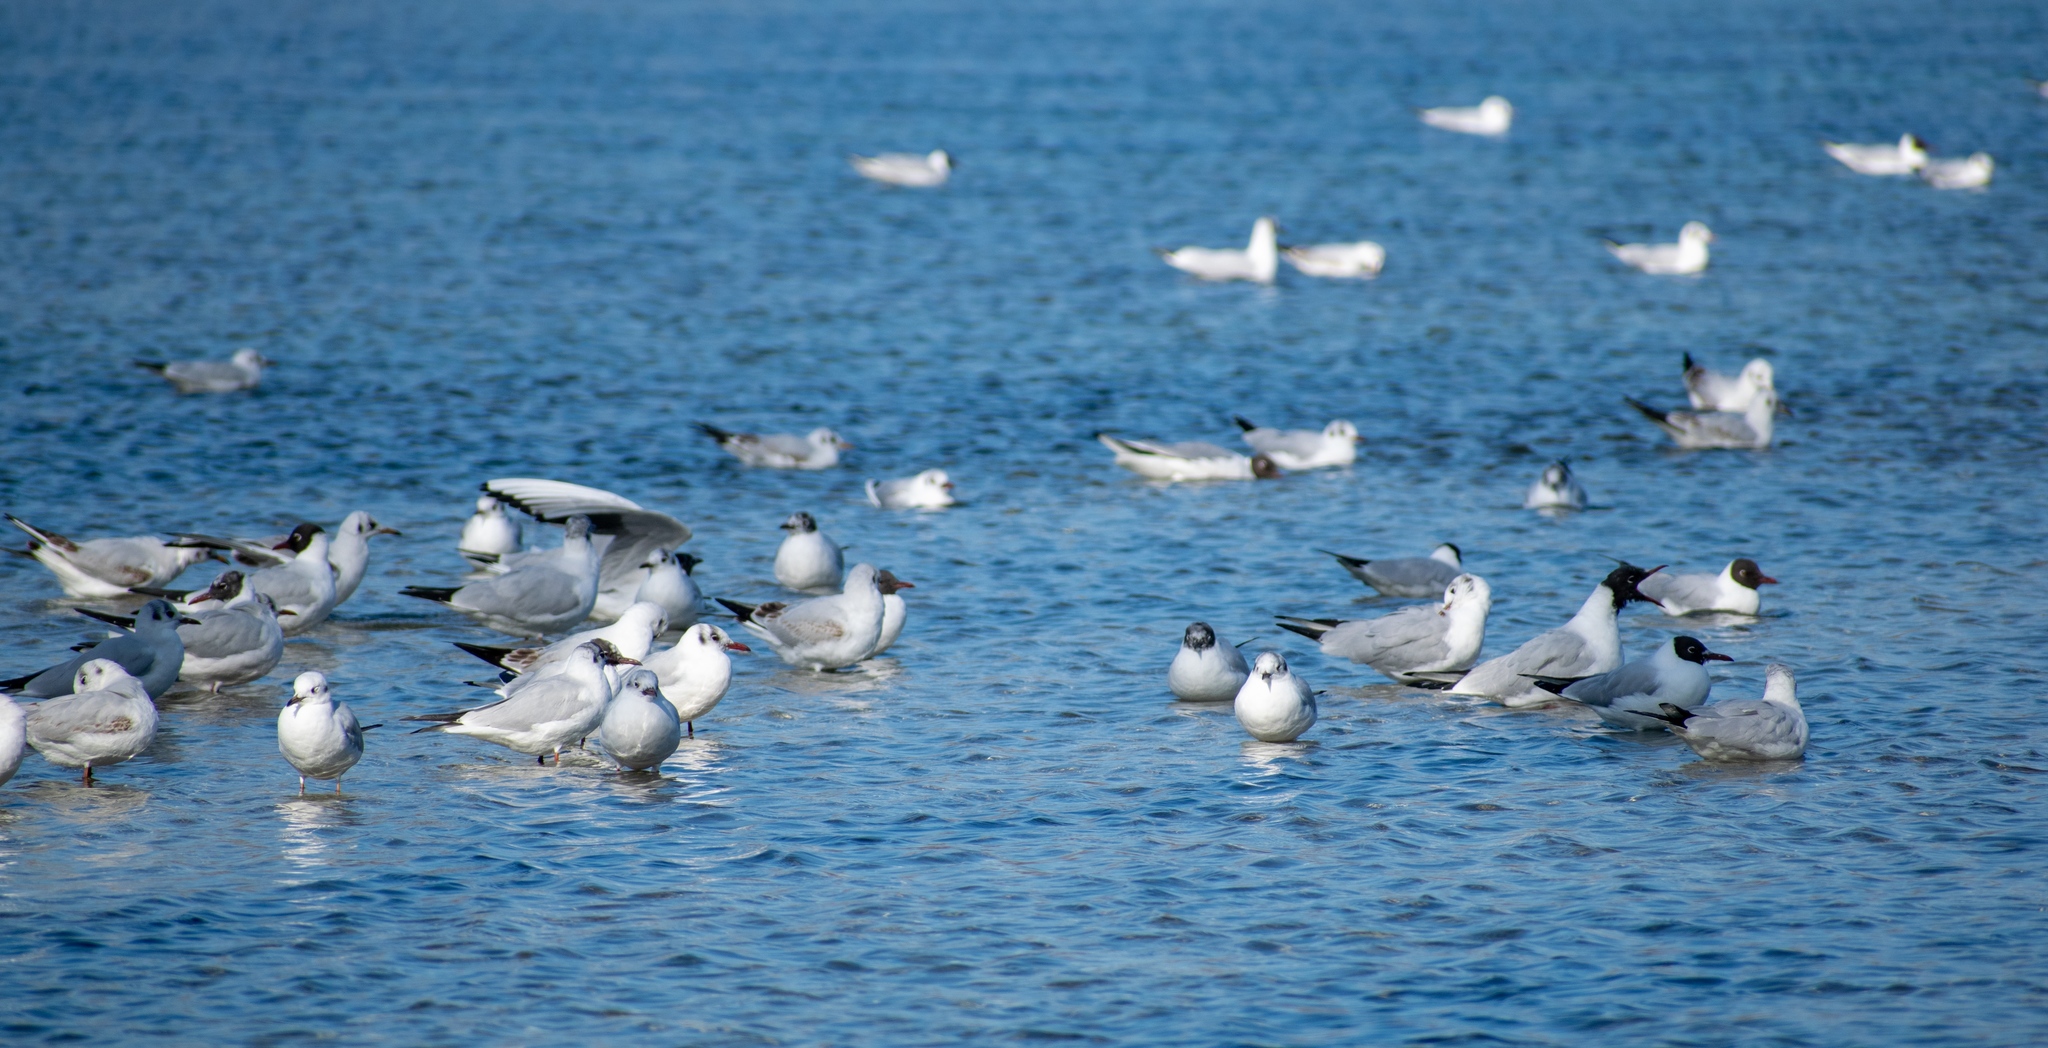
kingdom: Animalia
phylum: Chordata
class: Aves
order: Charadriiformes
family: Laridae
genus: Chroicocephalus
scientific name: Chroicocephalus ridibundus
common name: Black-headed gull
